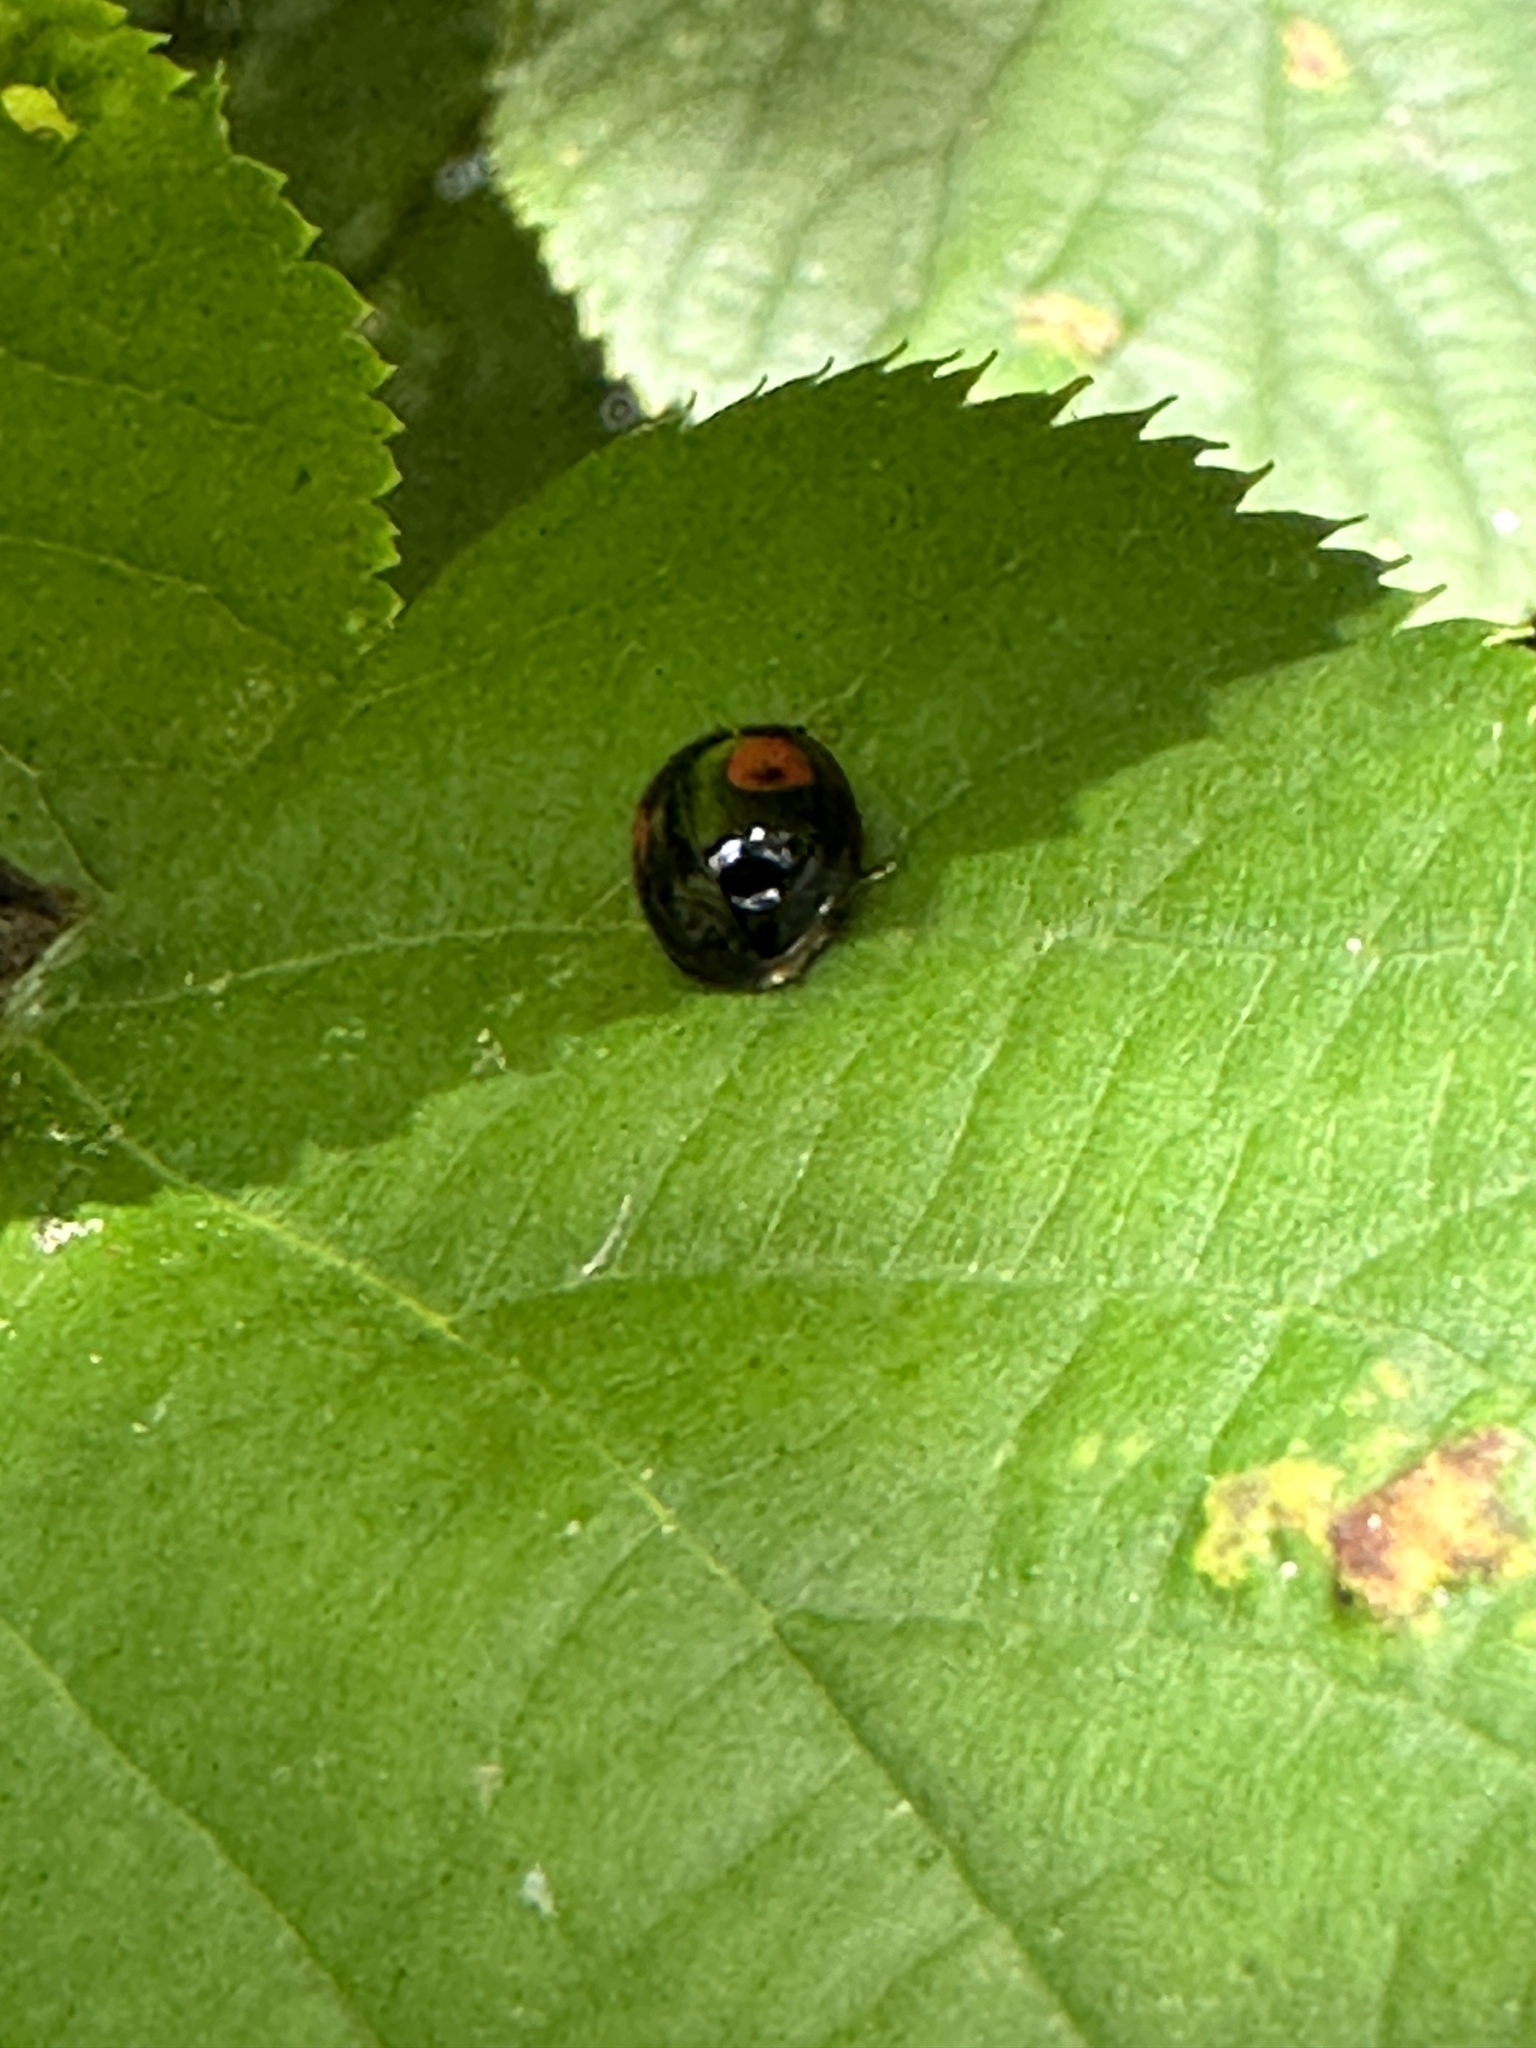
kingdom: Animalia
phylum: Arthropoda
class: Insecta
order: Coleoptera
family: Coccinellidae
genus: Harmonia
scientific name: Harmonia axyridis
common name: Harlequin ladybird
